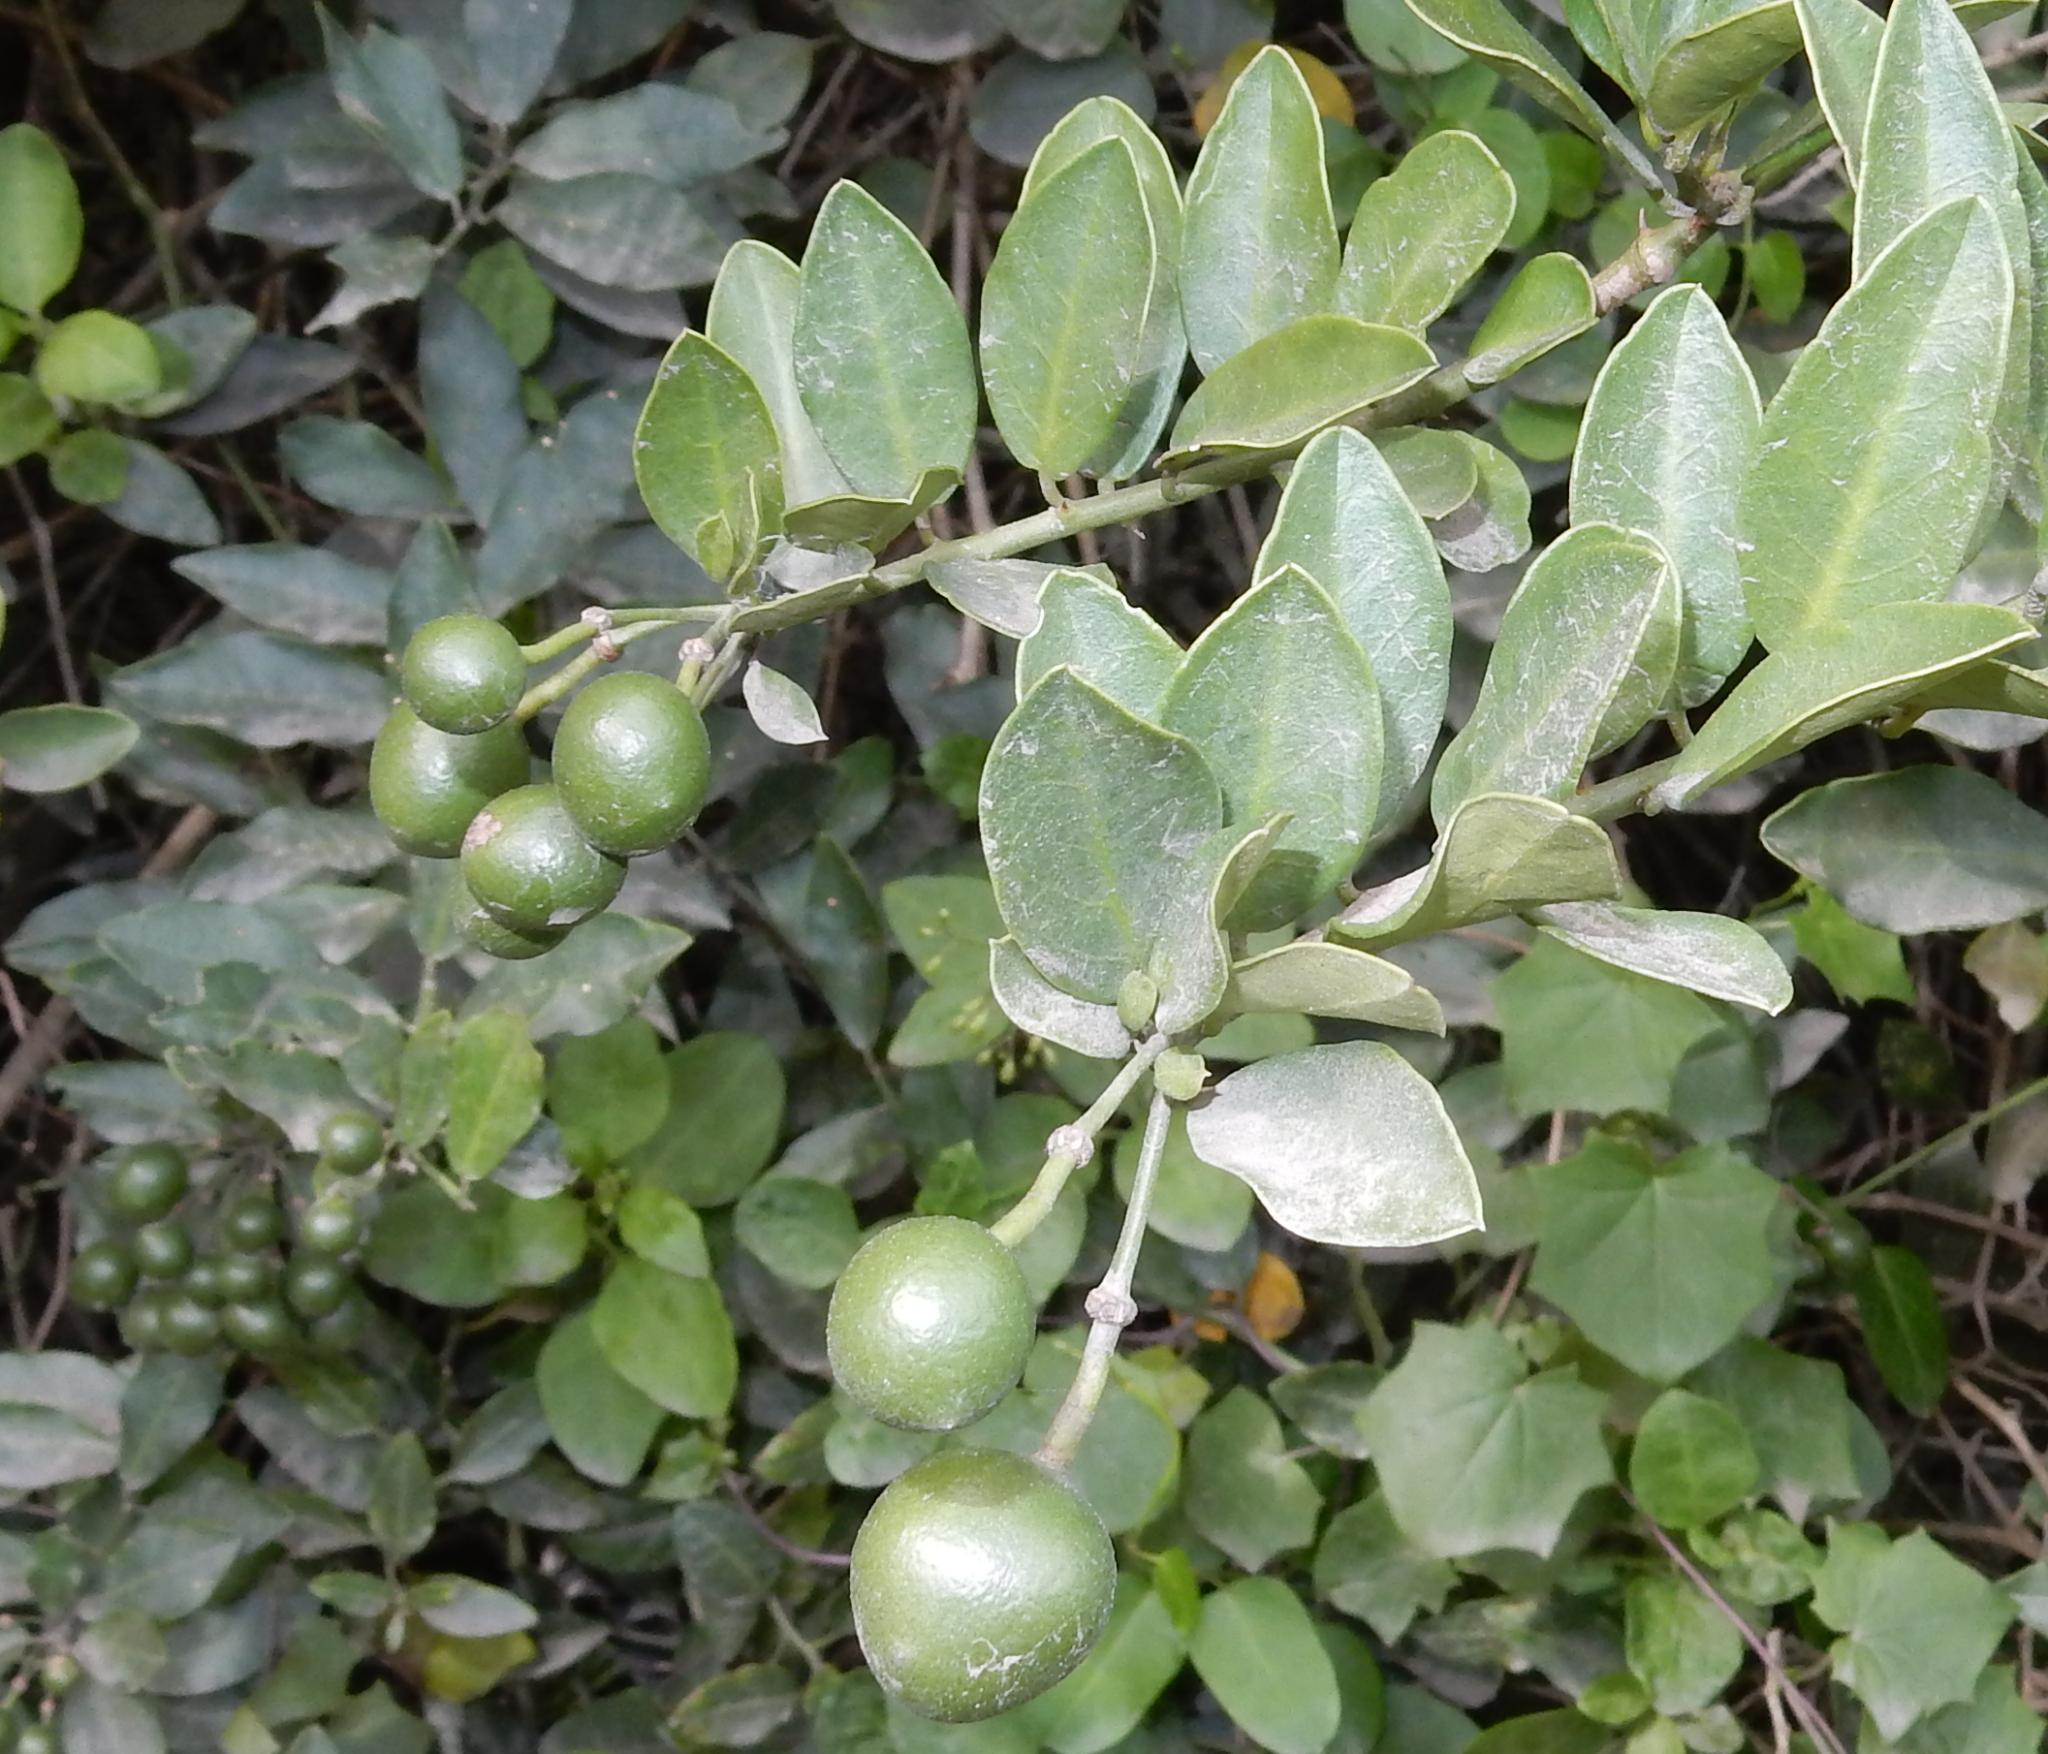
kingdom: Plantae
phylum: Tracheophyta
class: Magnoliopsida
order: Brassicales
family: Capparaceae
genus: Capparis
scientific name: Capparis sepiaria
